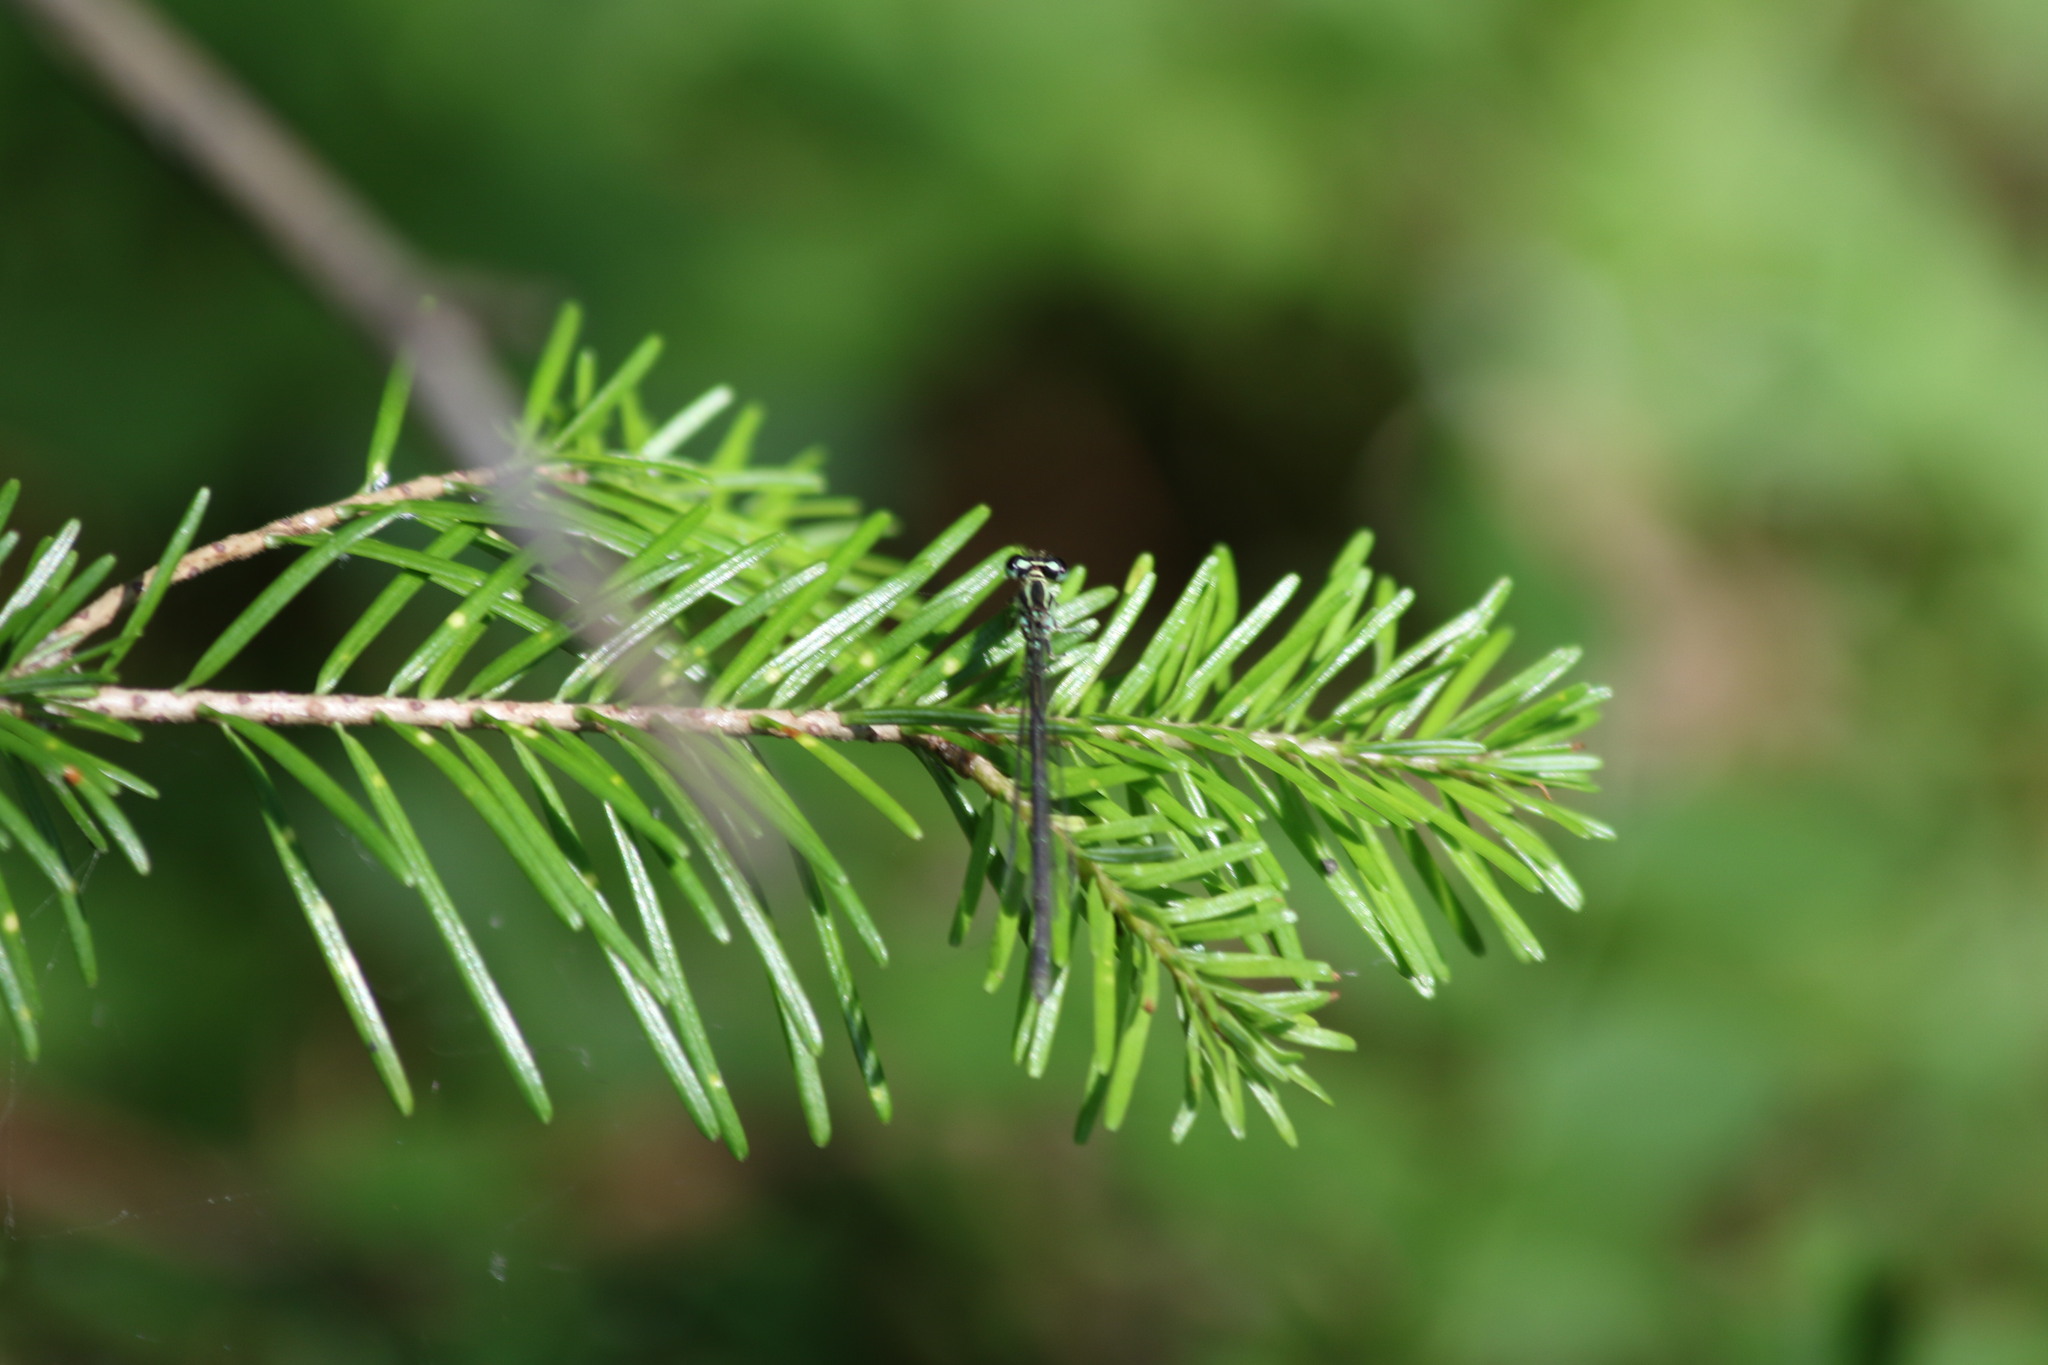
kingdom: Animalia
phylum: Arthropoda
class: Insecta
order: Odonata
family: Coenagrionidae
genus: Coenagrion
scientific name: Coenagrion puella
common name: Azure damselfly
